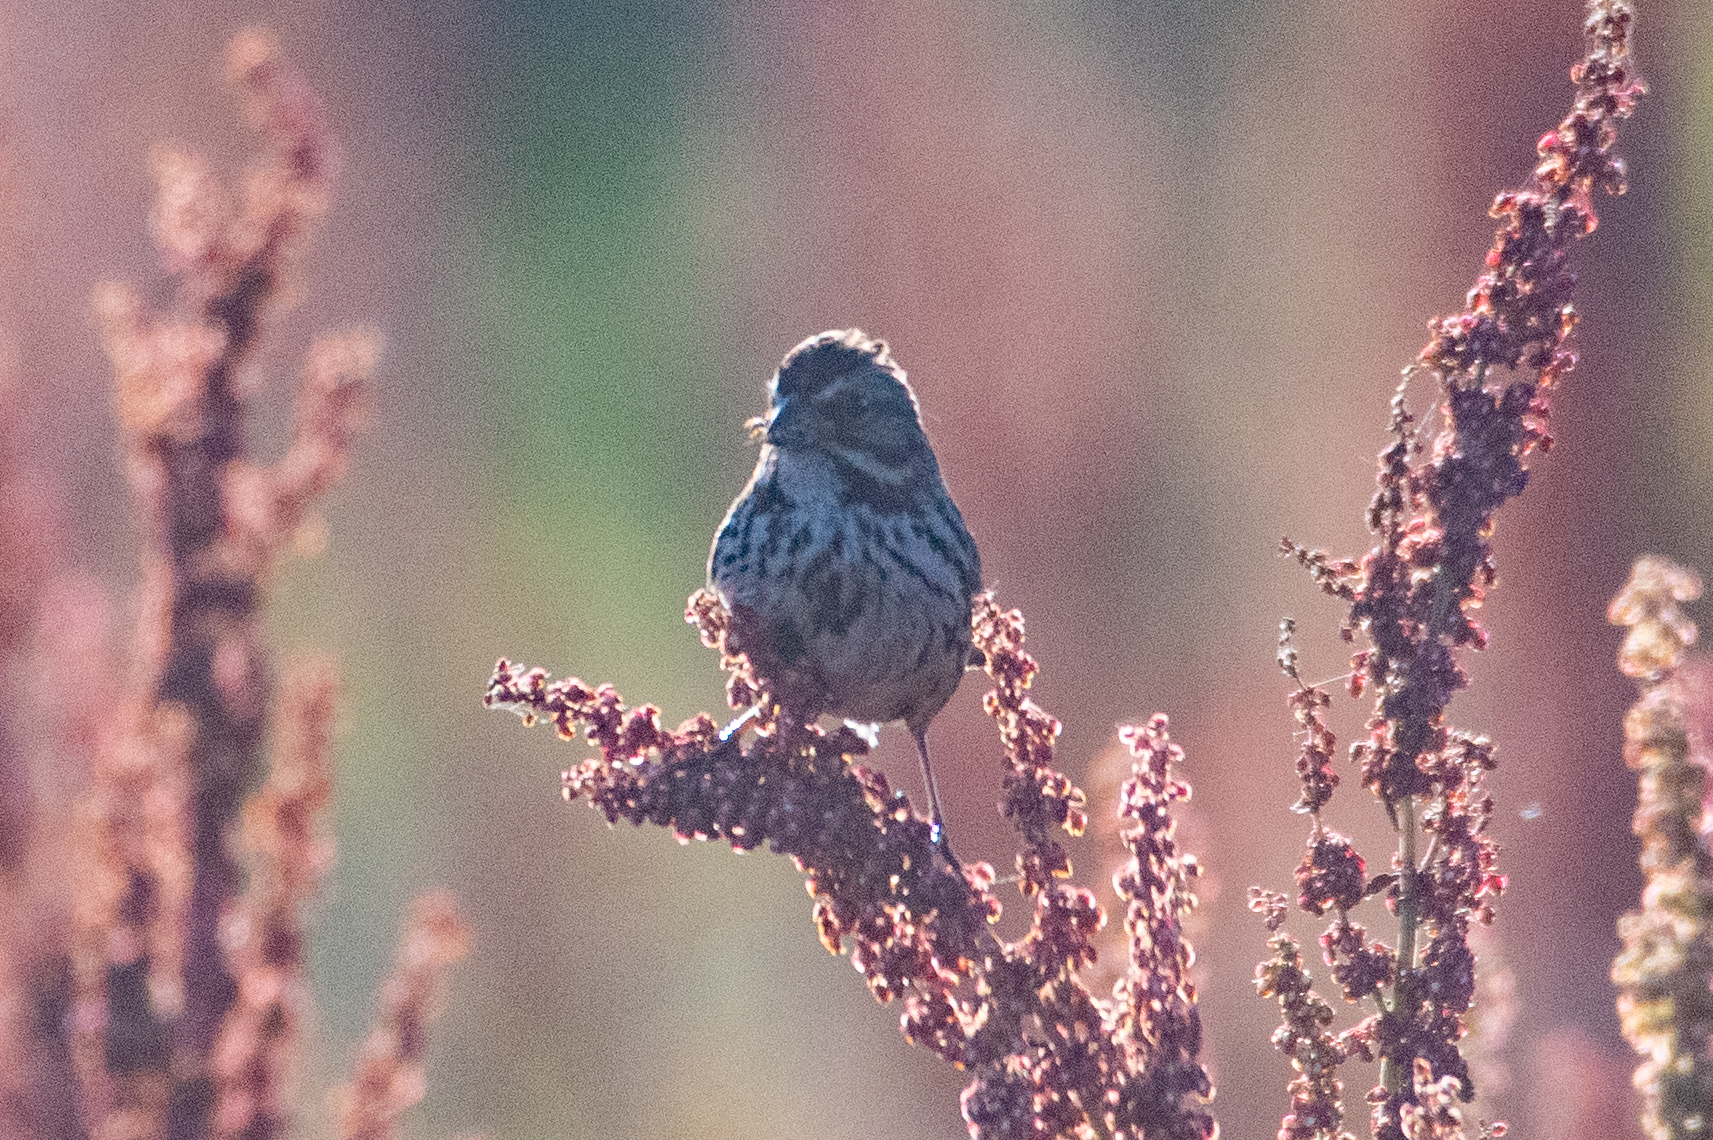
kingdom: Animalia
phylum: Chordata
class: Aves
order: Passeriformes
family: Passerellidae
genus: Melospiza
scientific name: Melospiza melodia
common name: Song sparrow
